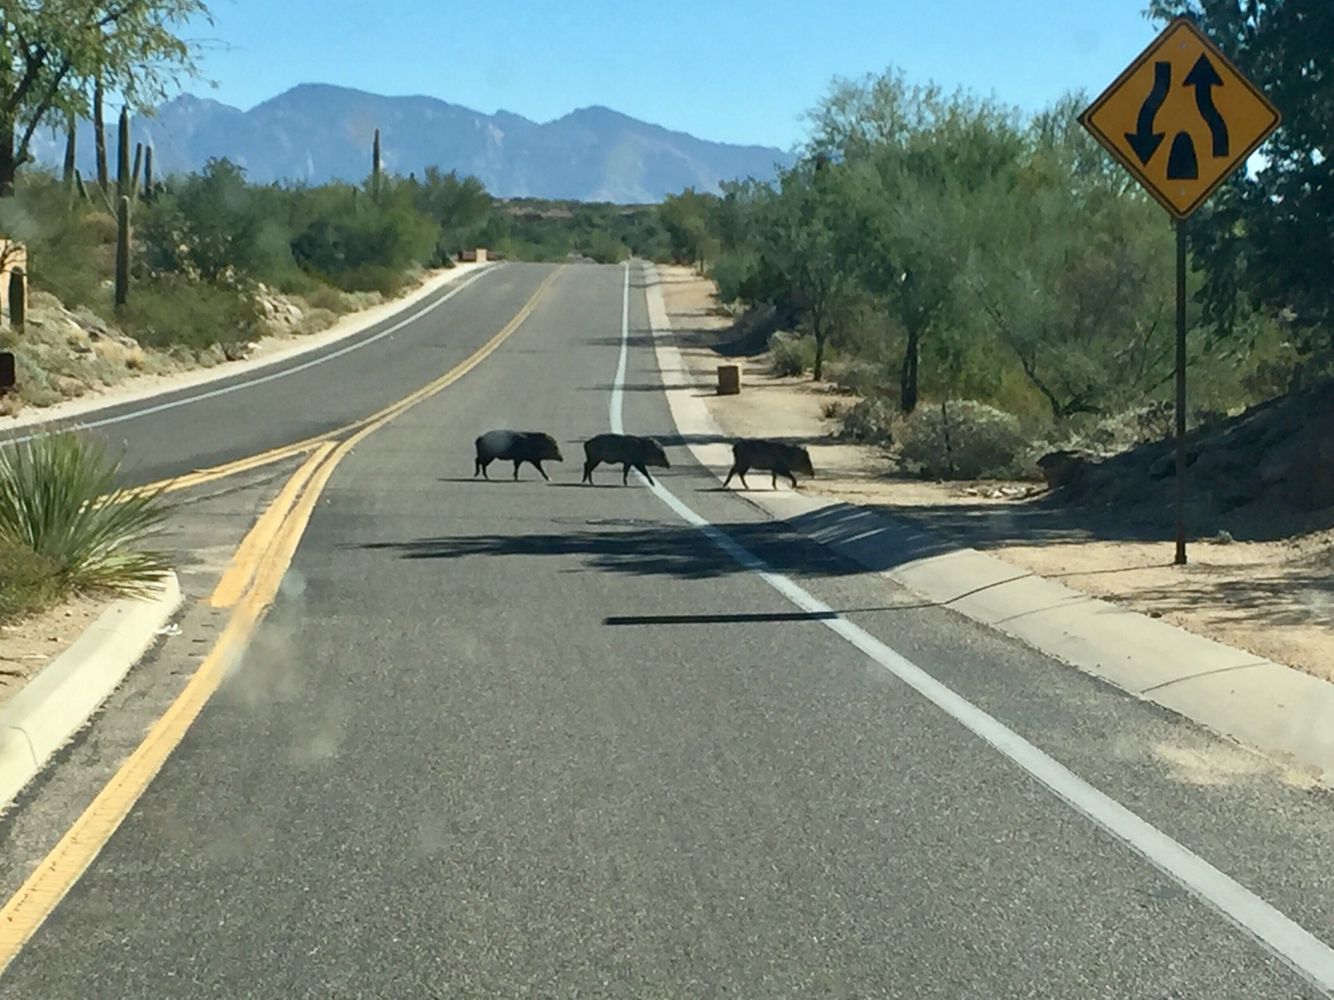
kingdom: Animalia
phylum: Chordata
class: Mammalia
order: Artiodactyla
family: Tayassuidae
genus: Pecari
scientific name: Pecari tajacu
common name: Collared peccary
